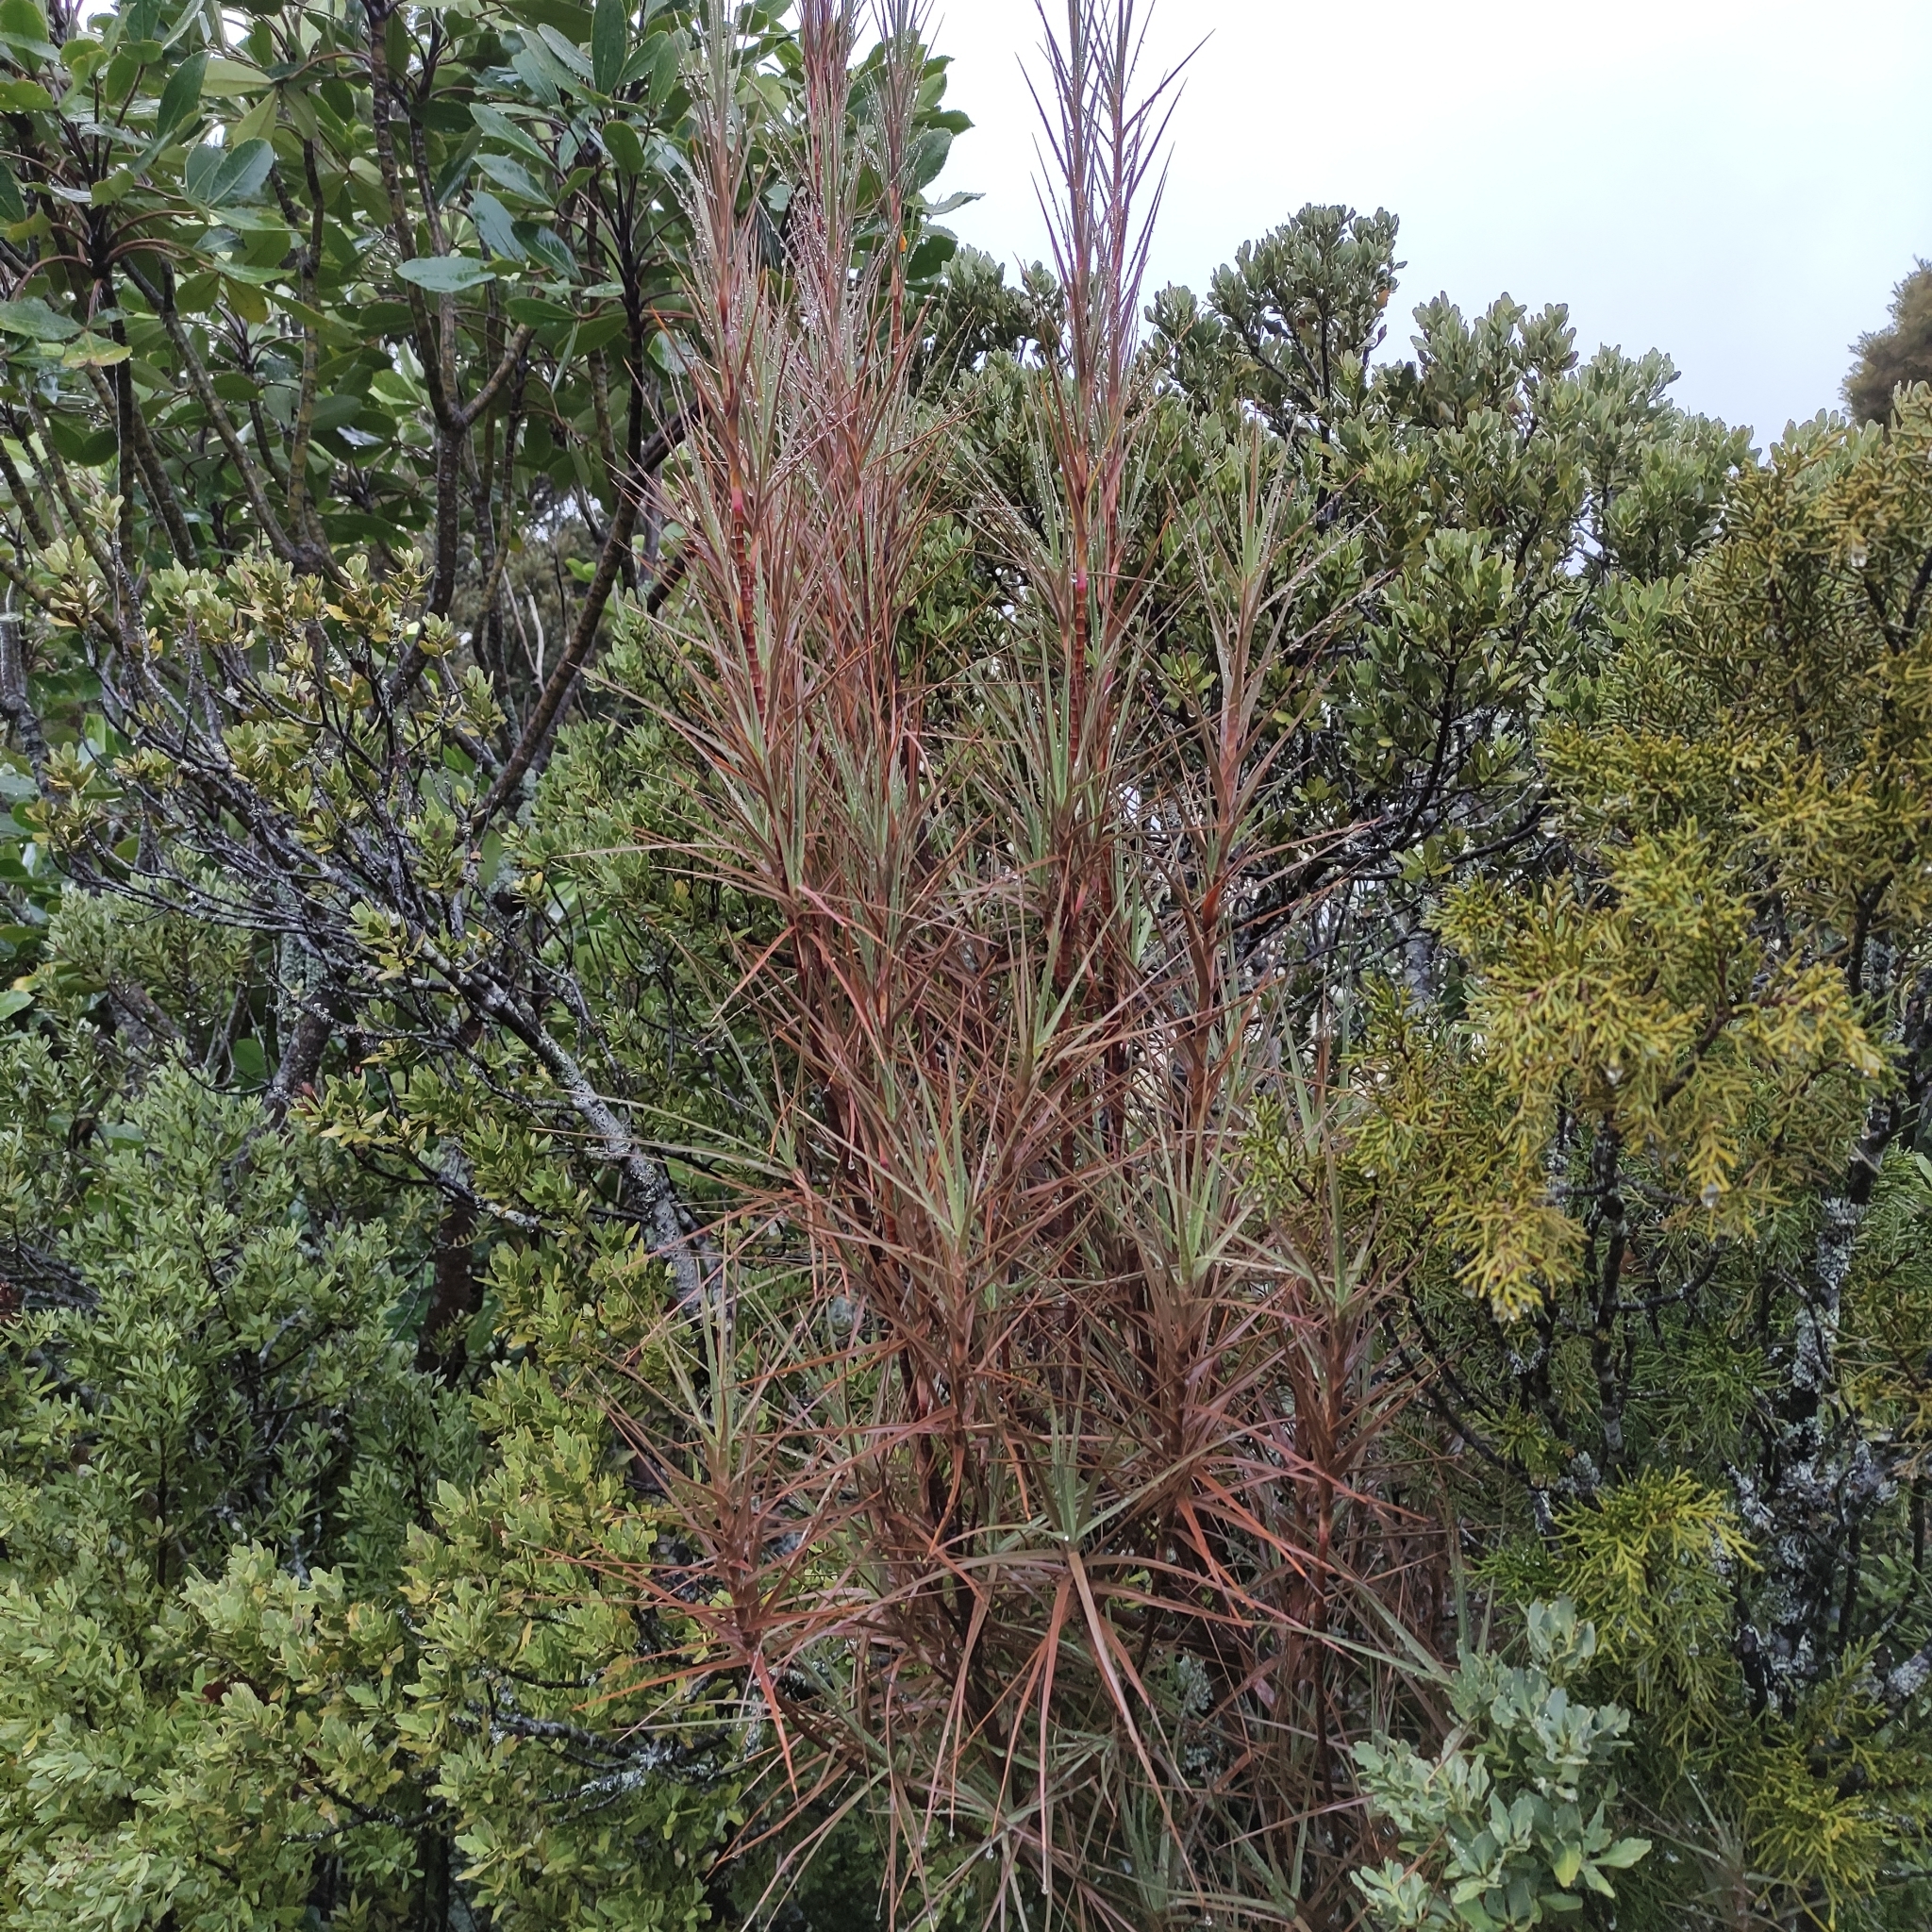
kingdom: Plantae
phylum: Tracheophyta
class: Magnoliopsida
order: Ericales
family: Ericaceae
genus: Dracophyllum
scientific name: Dracophyllum longifolium
